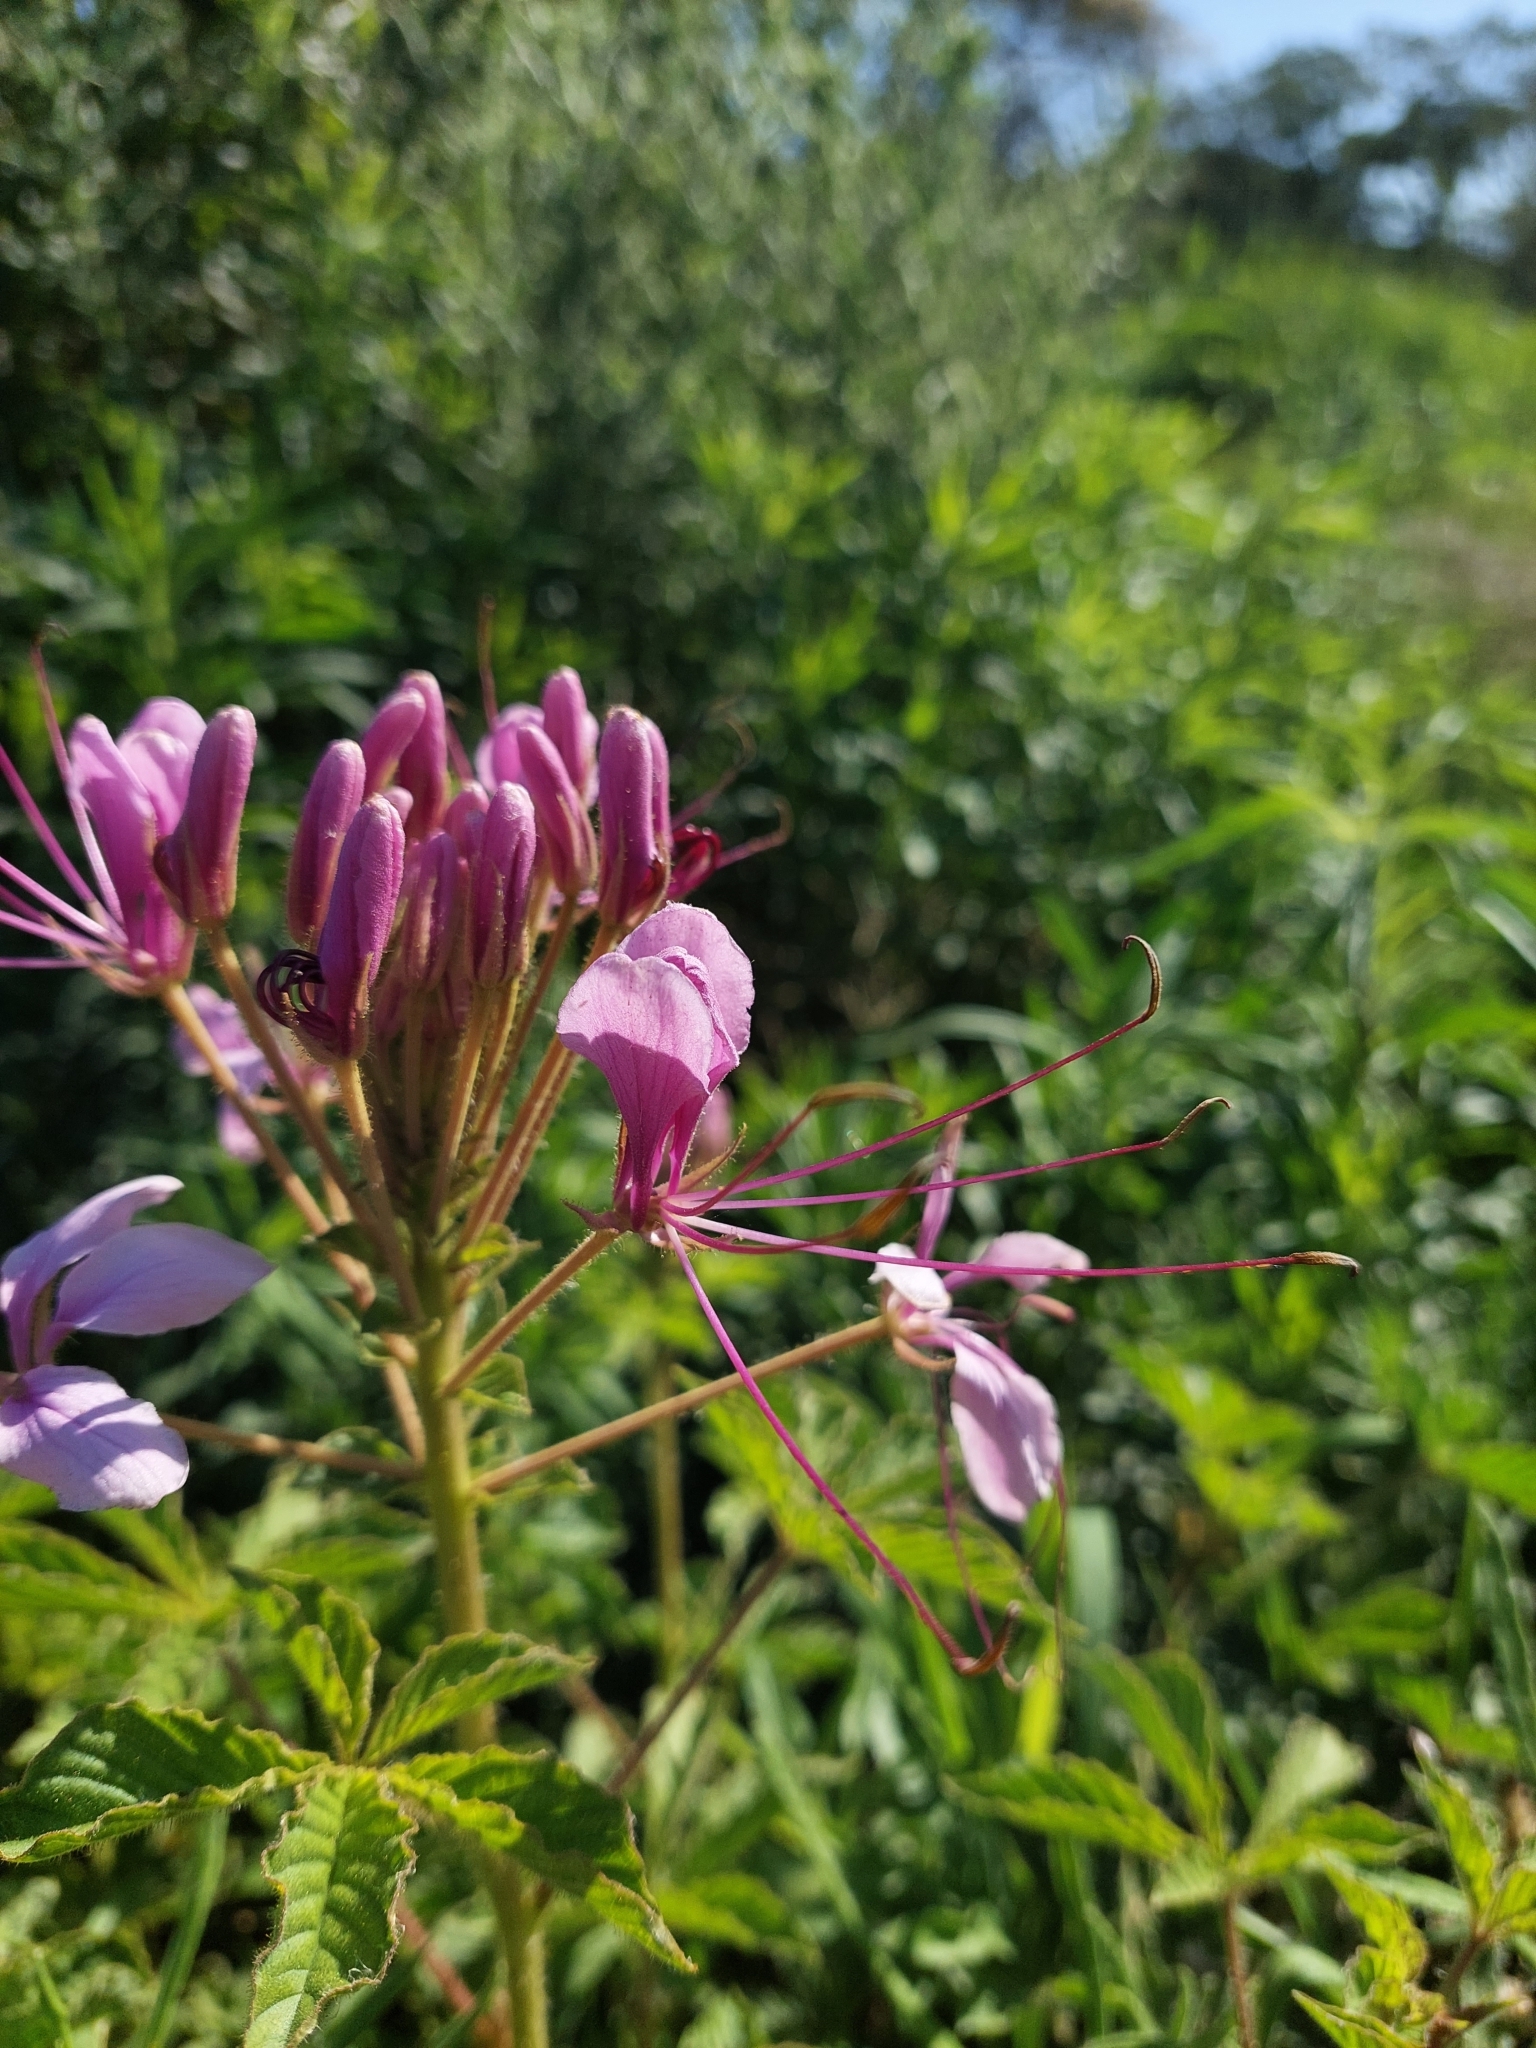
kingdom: Plantae
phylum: Tracheophyta
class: Magnoliopsida
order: Brassicales
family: Cleomaceae
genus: Tarenaya
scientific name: Tarenaya houtteana
